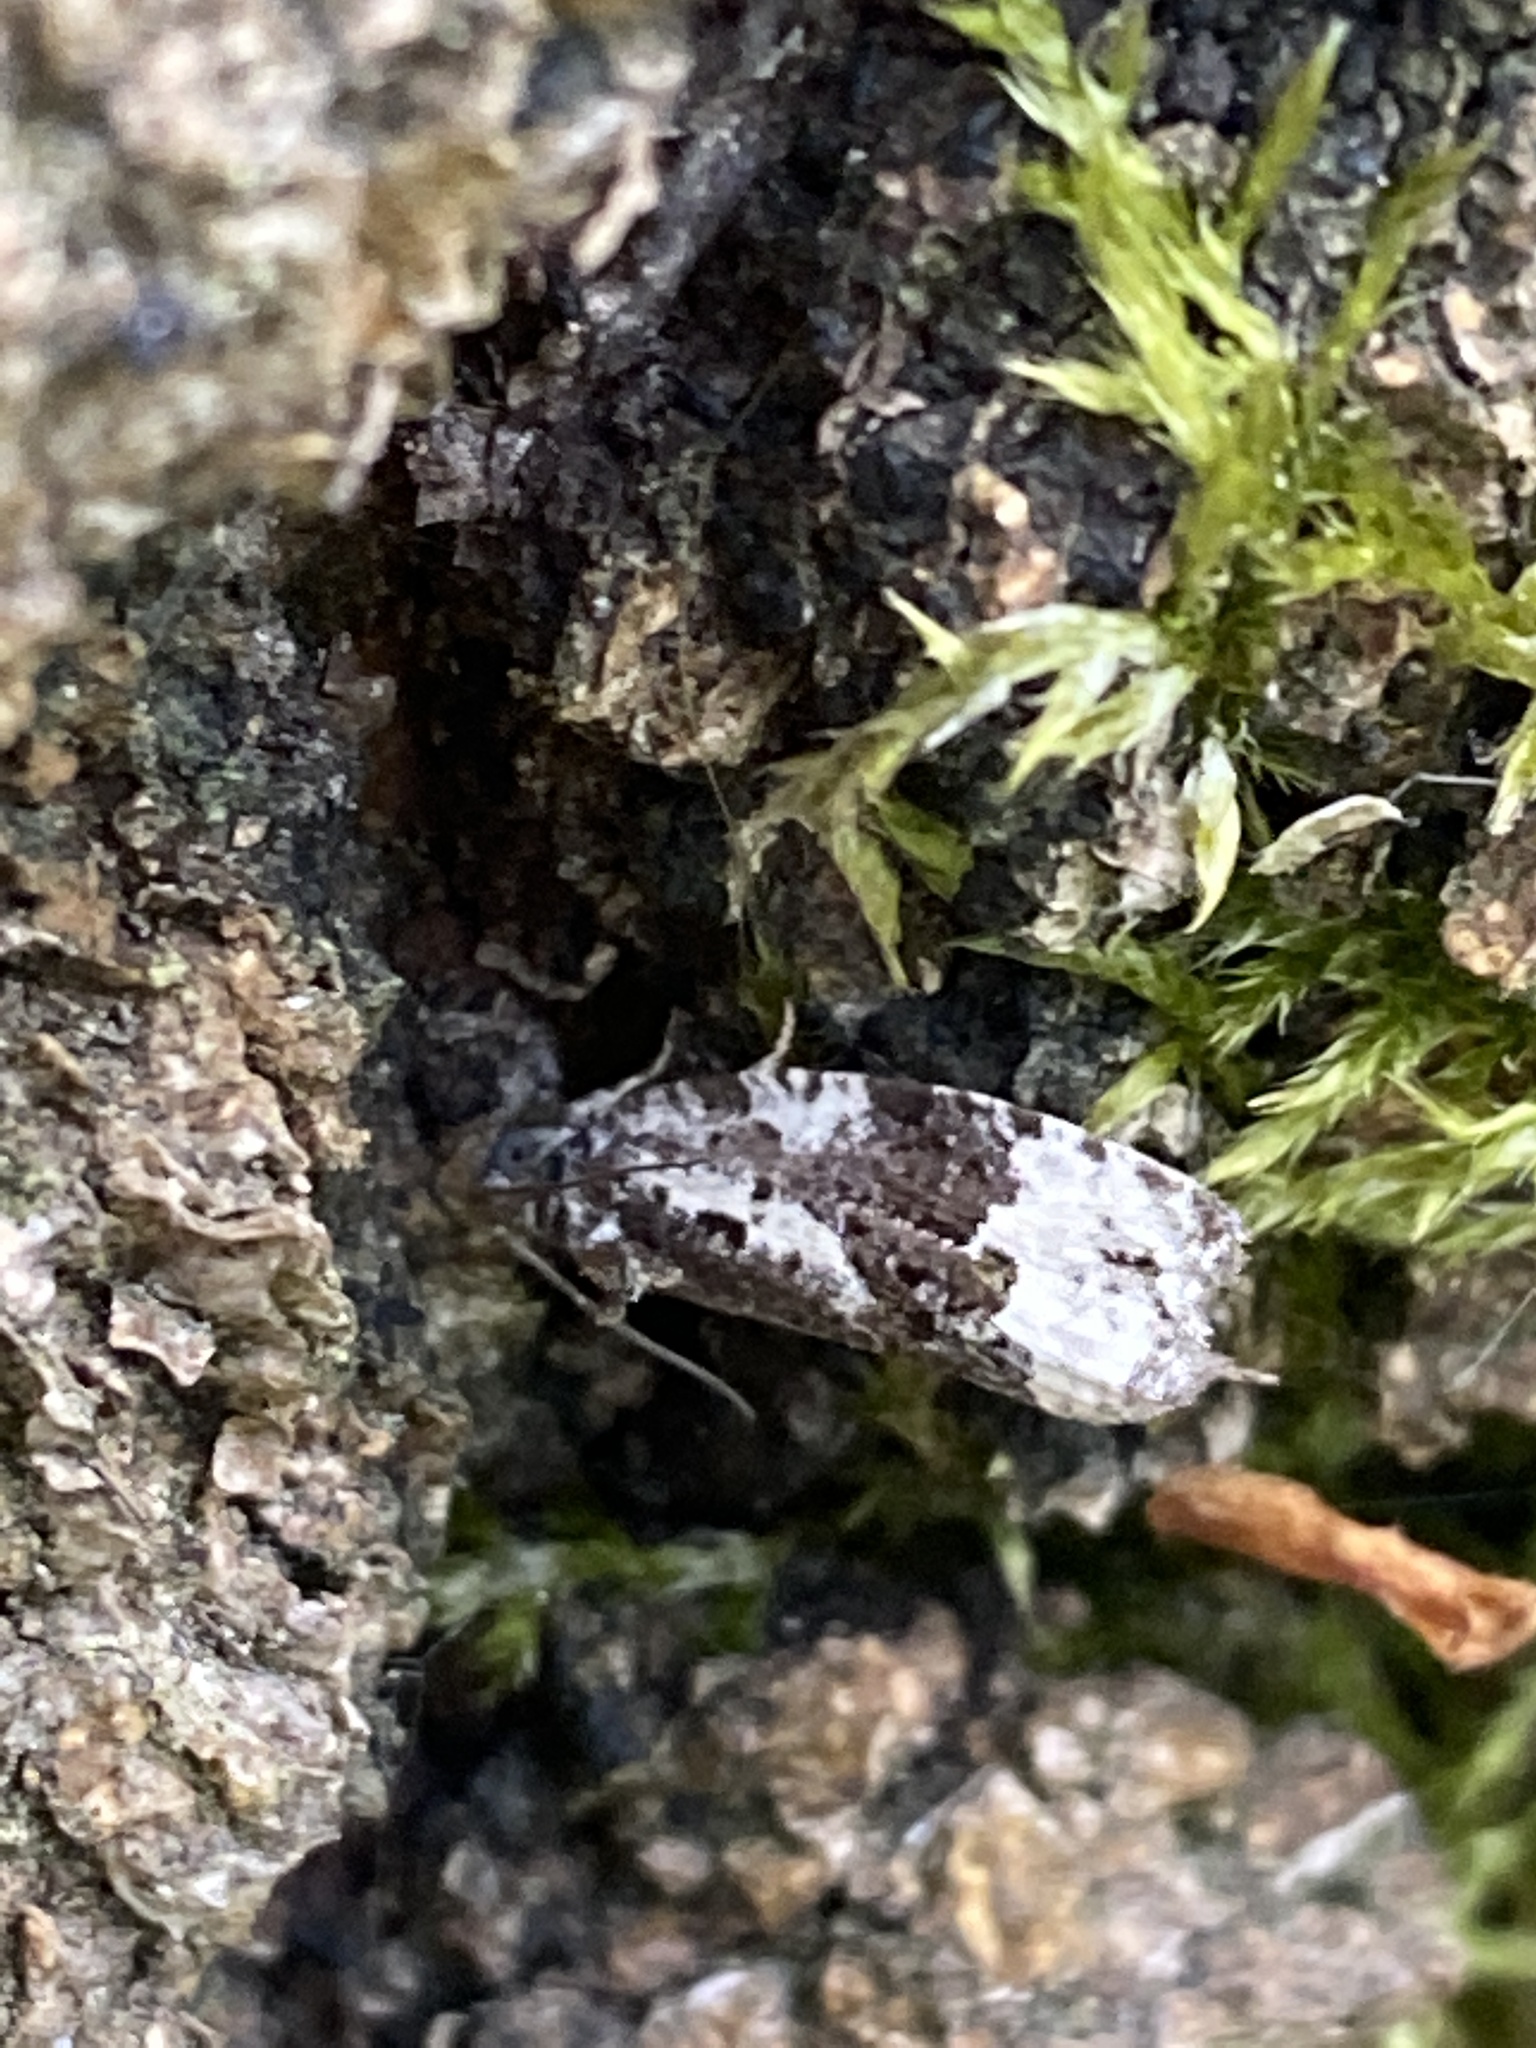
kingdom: Animalia
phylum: Arthropoda
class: Insecta
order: Lepidoptera
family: Tortricidae
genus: Apotomis
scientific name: Apotomis turbidana
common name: White-shouldered marble
